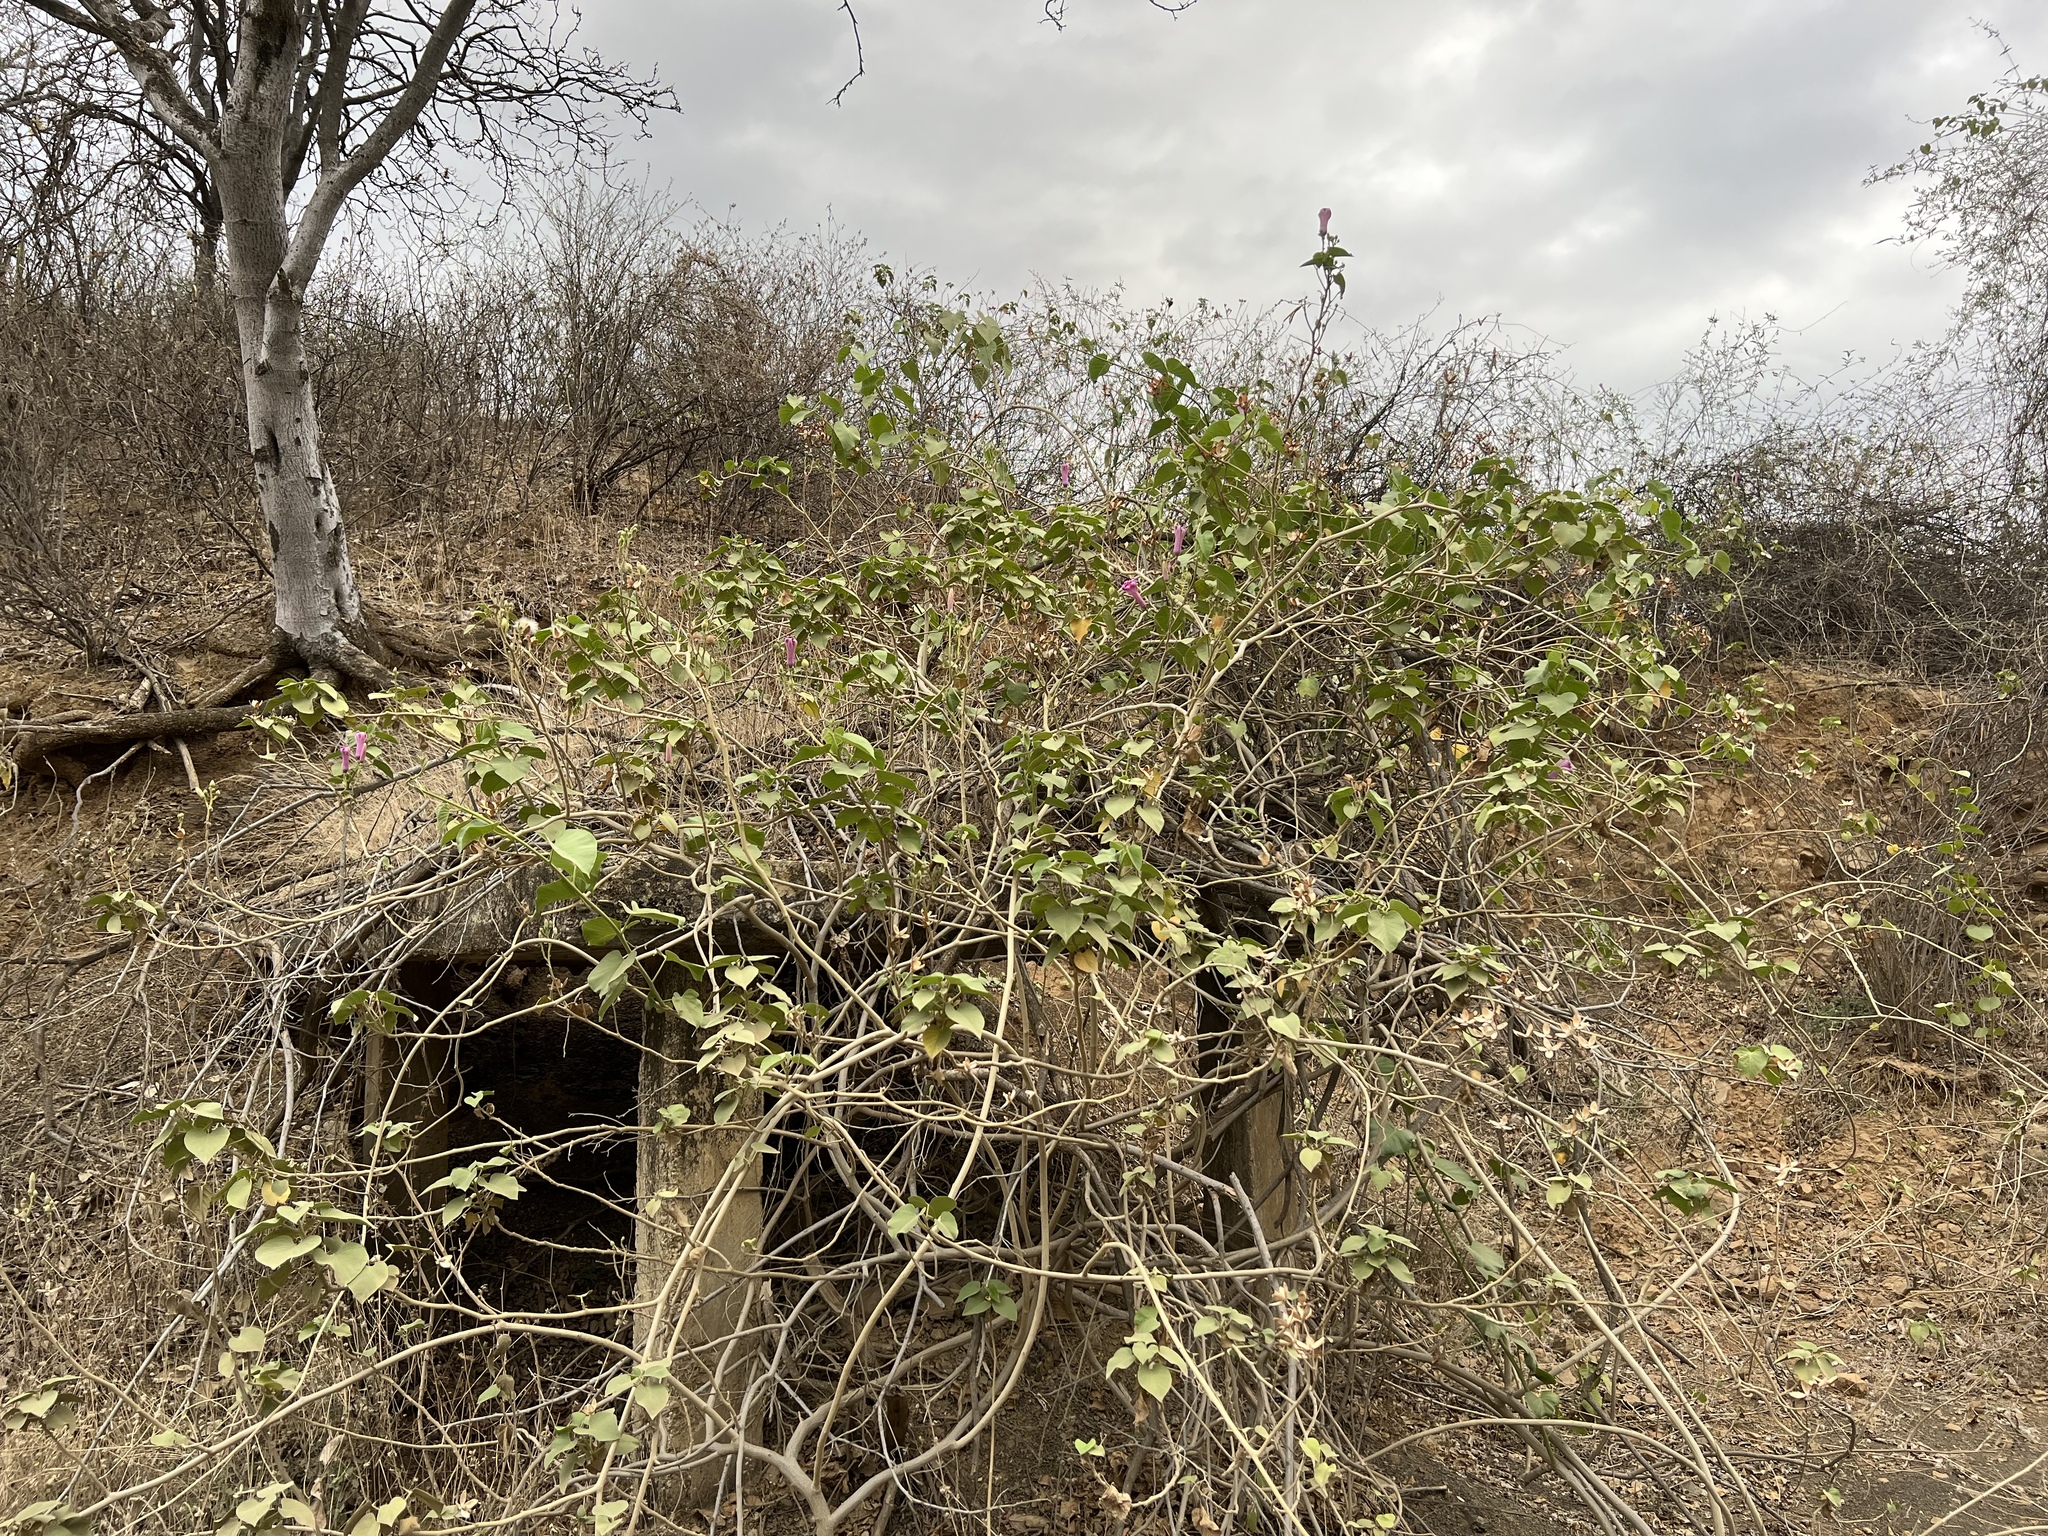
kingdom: Plantae
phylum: Tracheophyta
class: Magnoliopsida
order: Solanales
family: Convolvulaceae
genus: Ipomoea
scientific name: Ipomoea carnea
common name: Morning-glory
